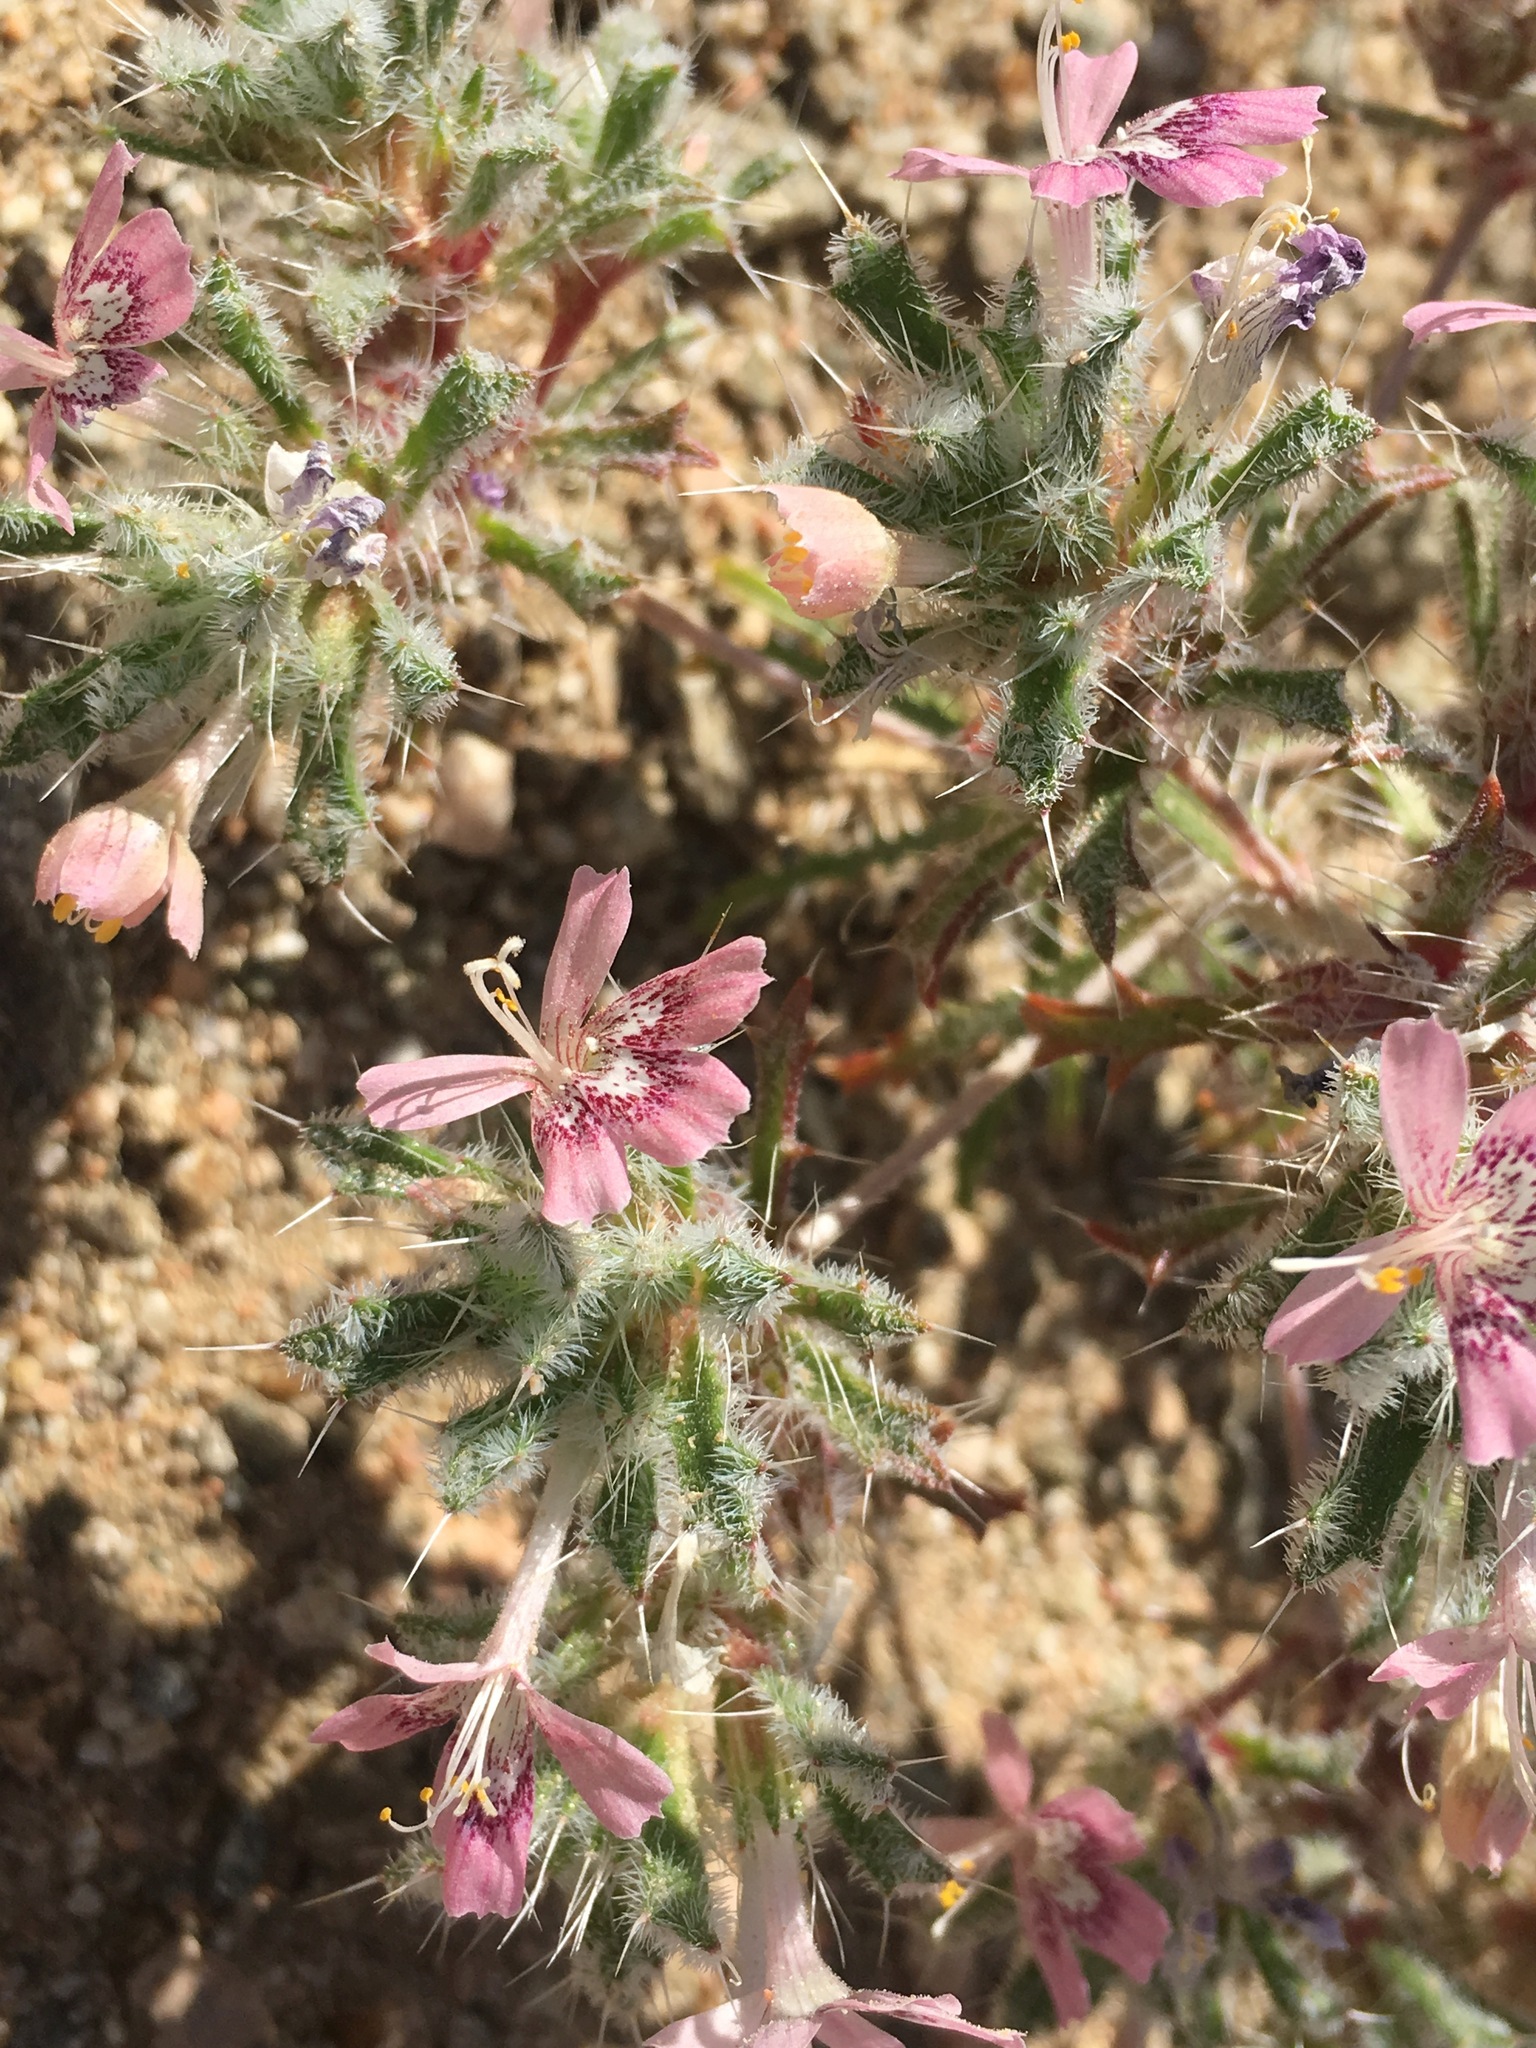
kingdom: Plantae
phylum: Tracheophyta
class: Magnoliopsida
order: Ericales
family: Polemoniaceae
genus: Loeseliastrum
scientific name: Loeseliastrum matthewsii
